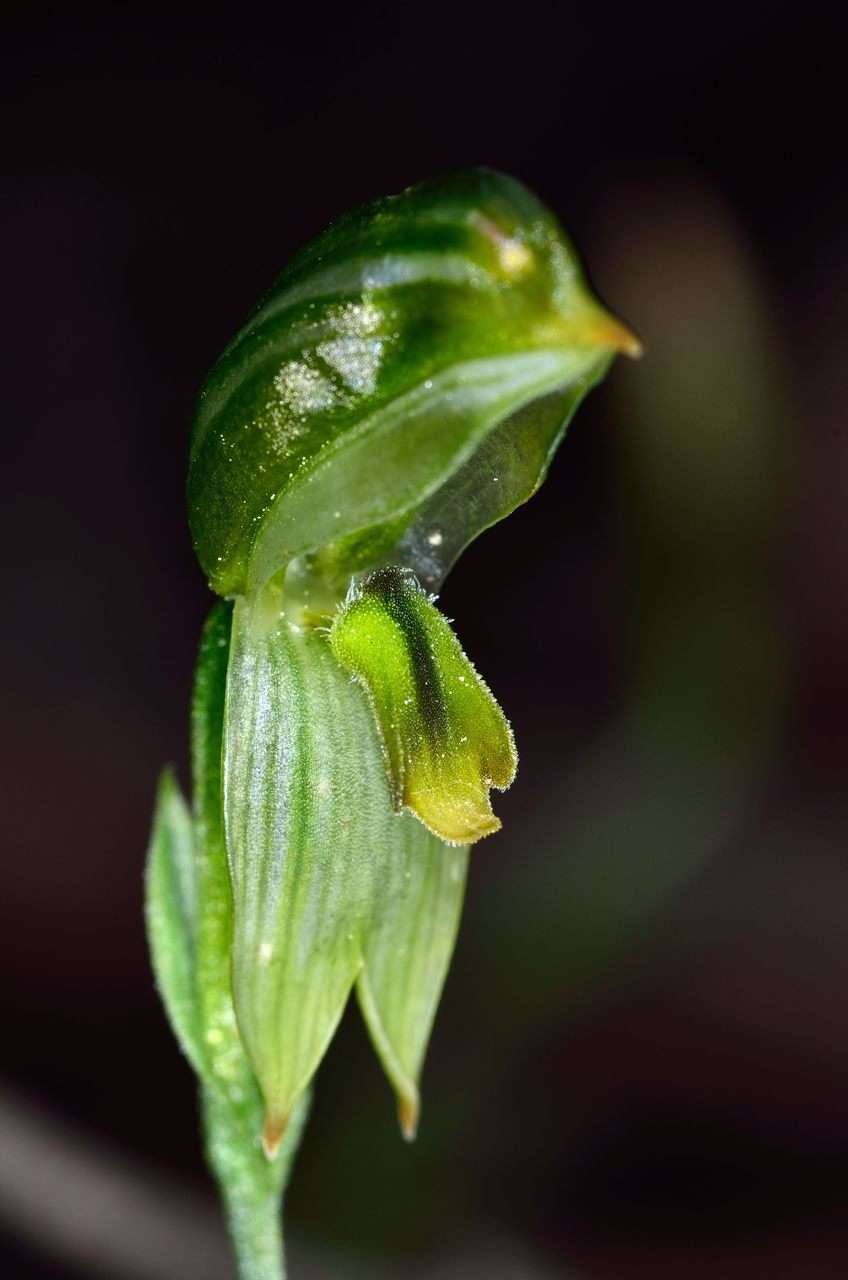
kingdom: Plantae
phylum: Tracheophyta
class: Liliopsida
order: Asparagales
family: Orchidaceae
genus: Pterostylis
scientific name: Pterostylis smaragdyna
